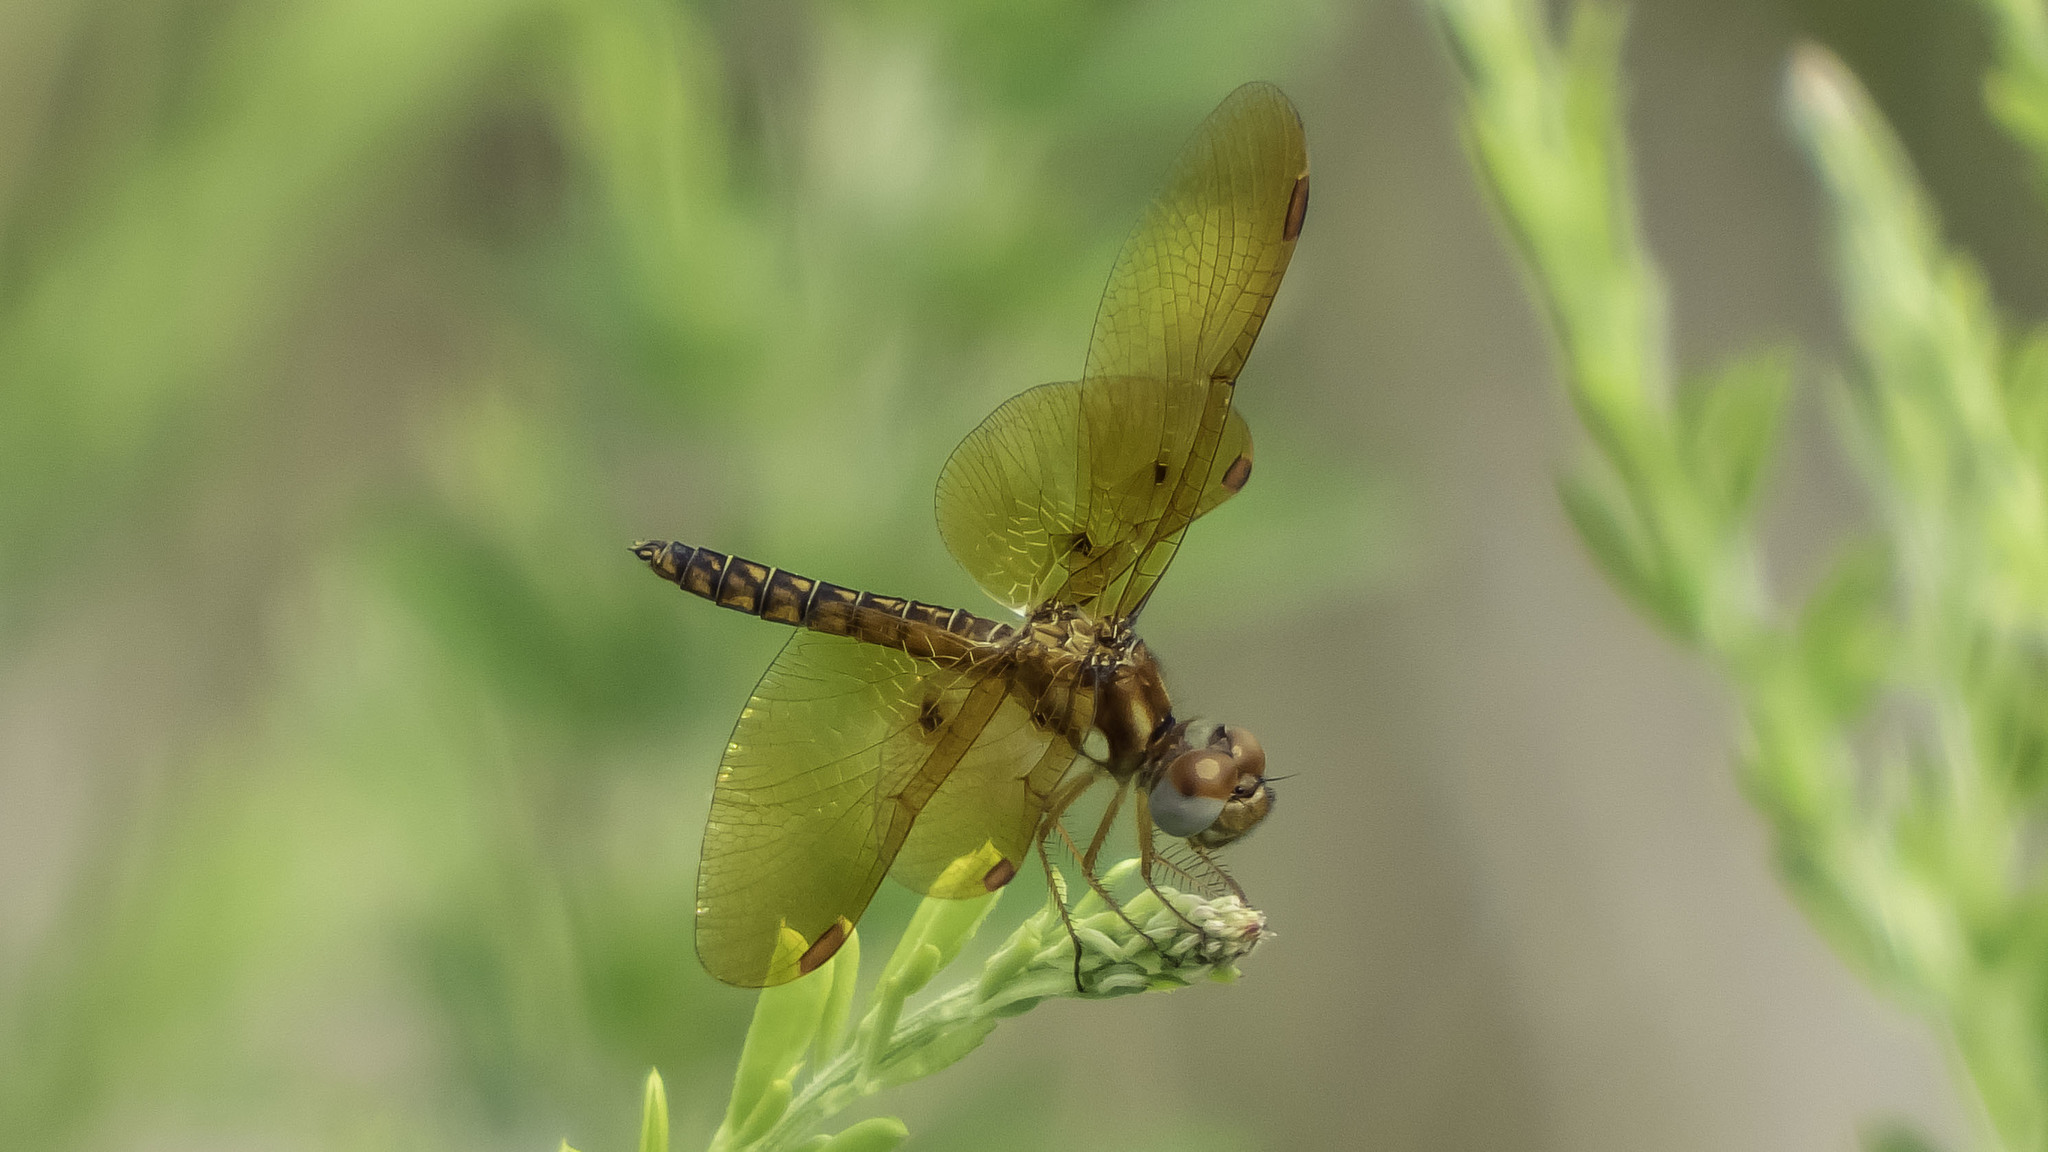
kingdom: Animalia
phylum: Arthropoda
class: Insecta
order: Odonata
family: Libellulidae
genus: Perithemis
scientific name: Perithemis tenera
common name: Eastern amberwing
